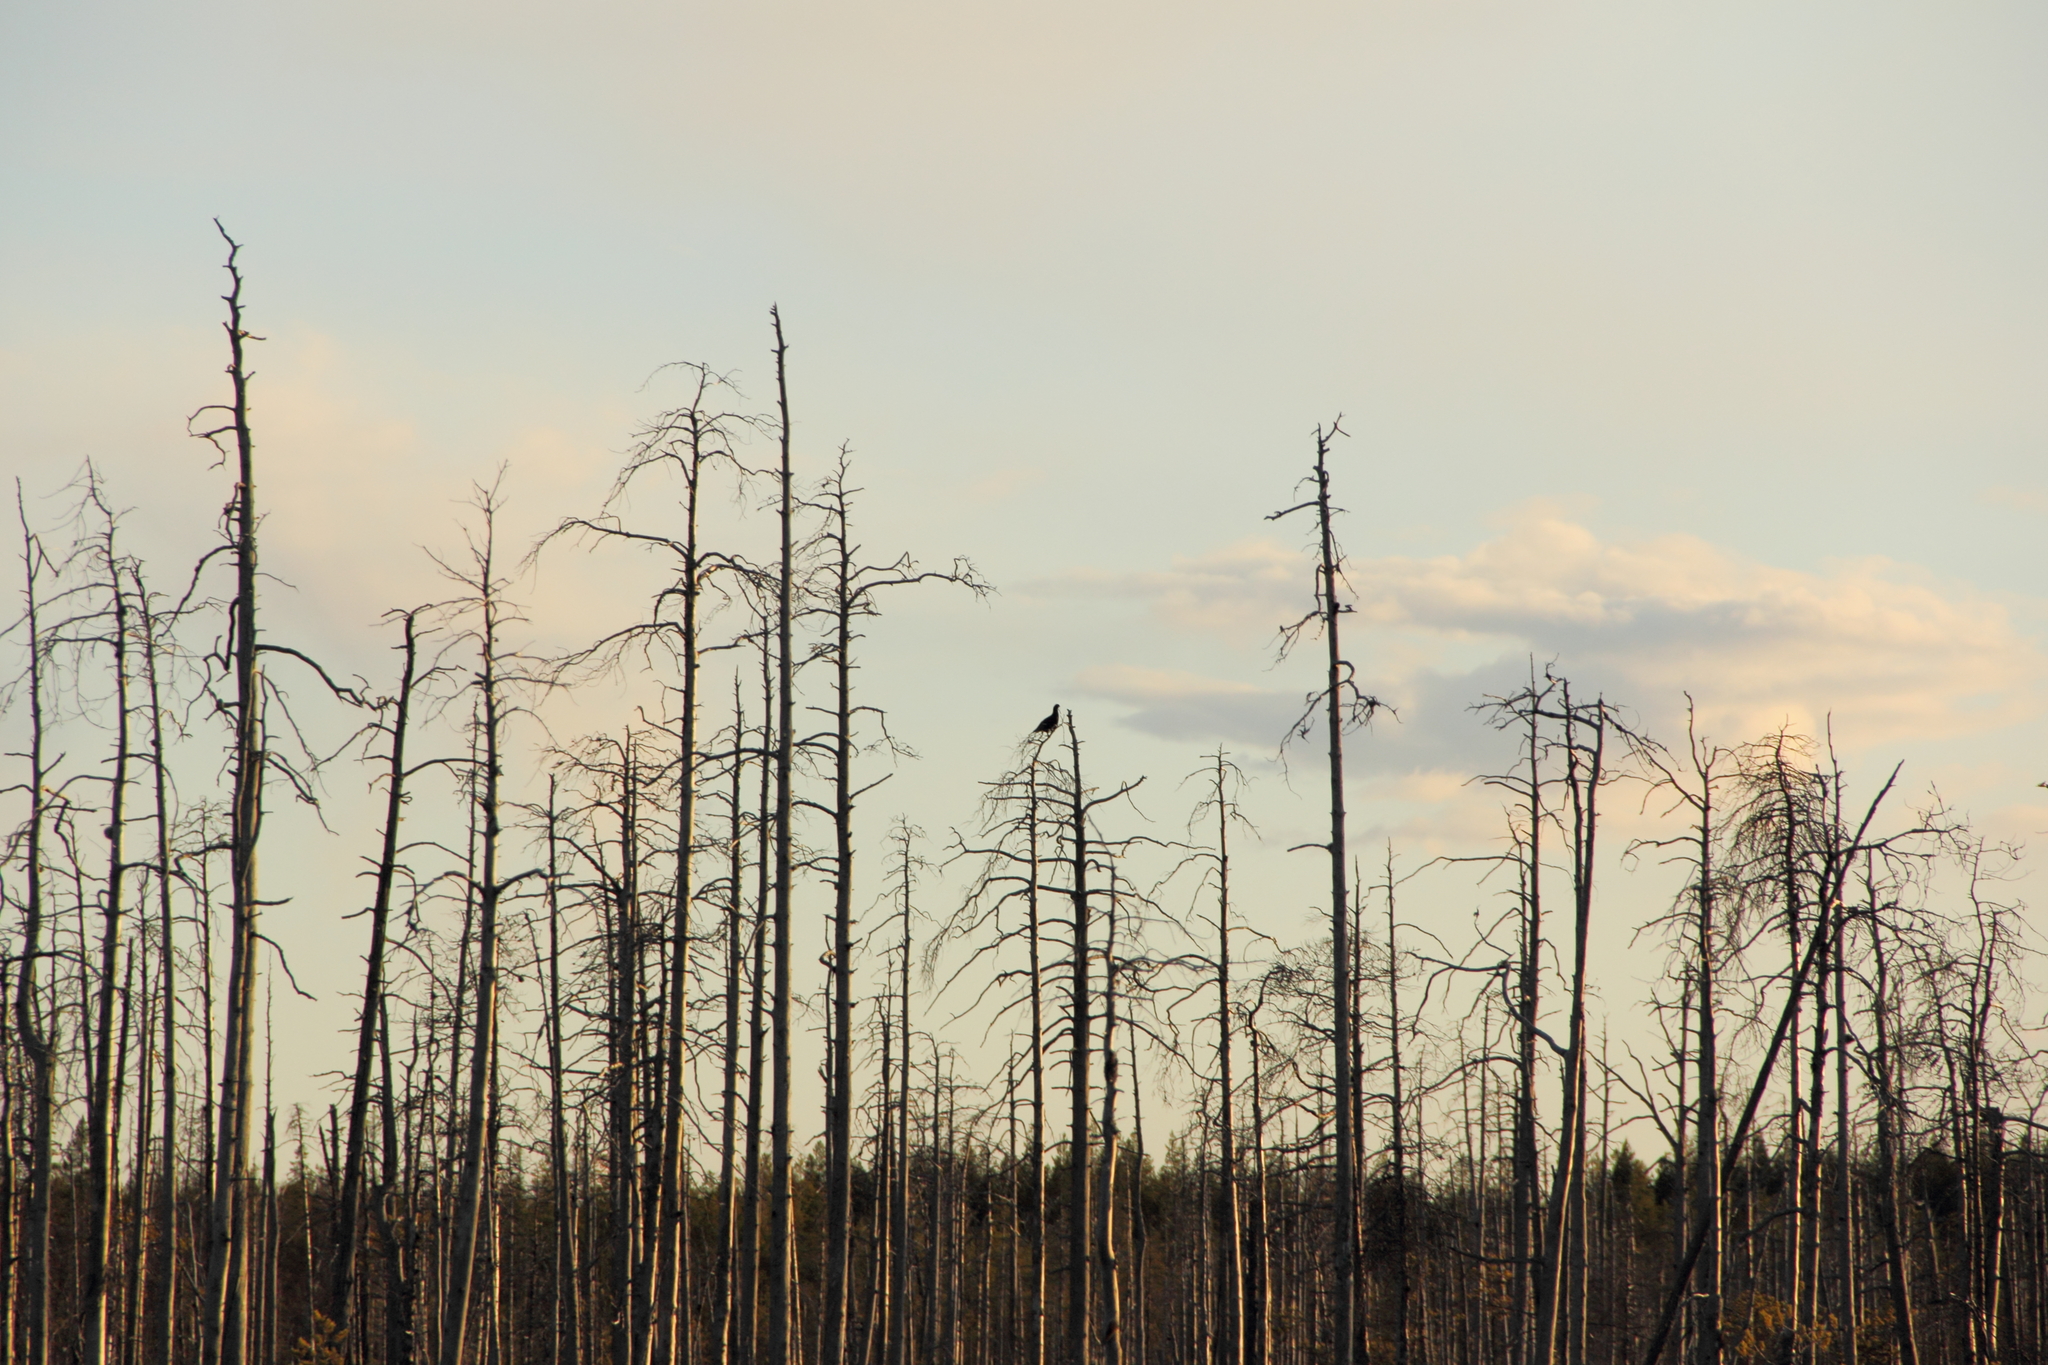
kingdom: Animalia
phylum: Chordata
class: Aves
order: Galliformes
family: Phasianidae
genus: Lyrurus
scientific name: Lyrurus tetrix
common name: Black grouse
